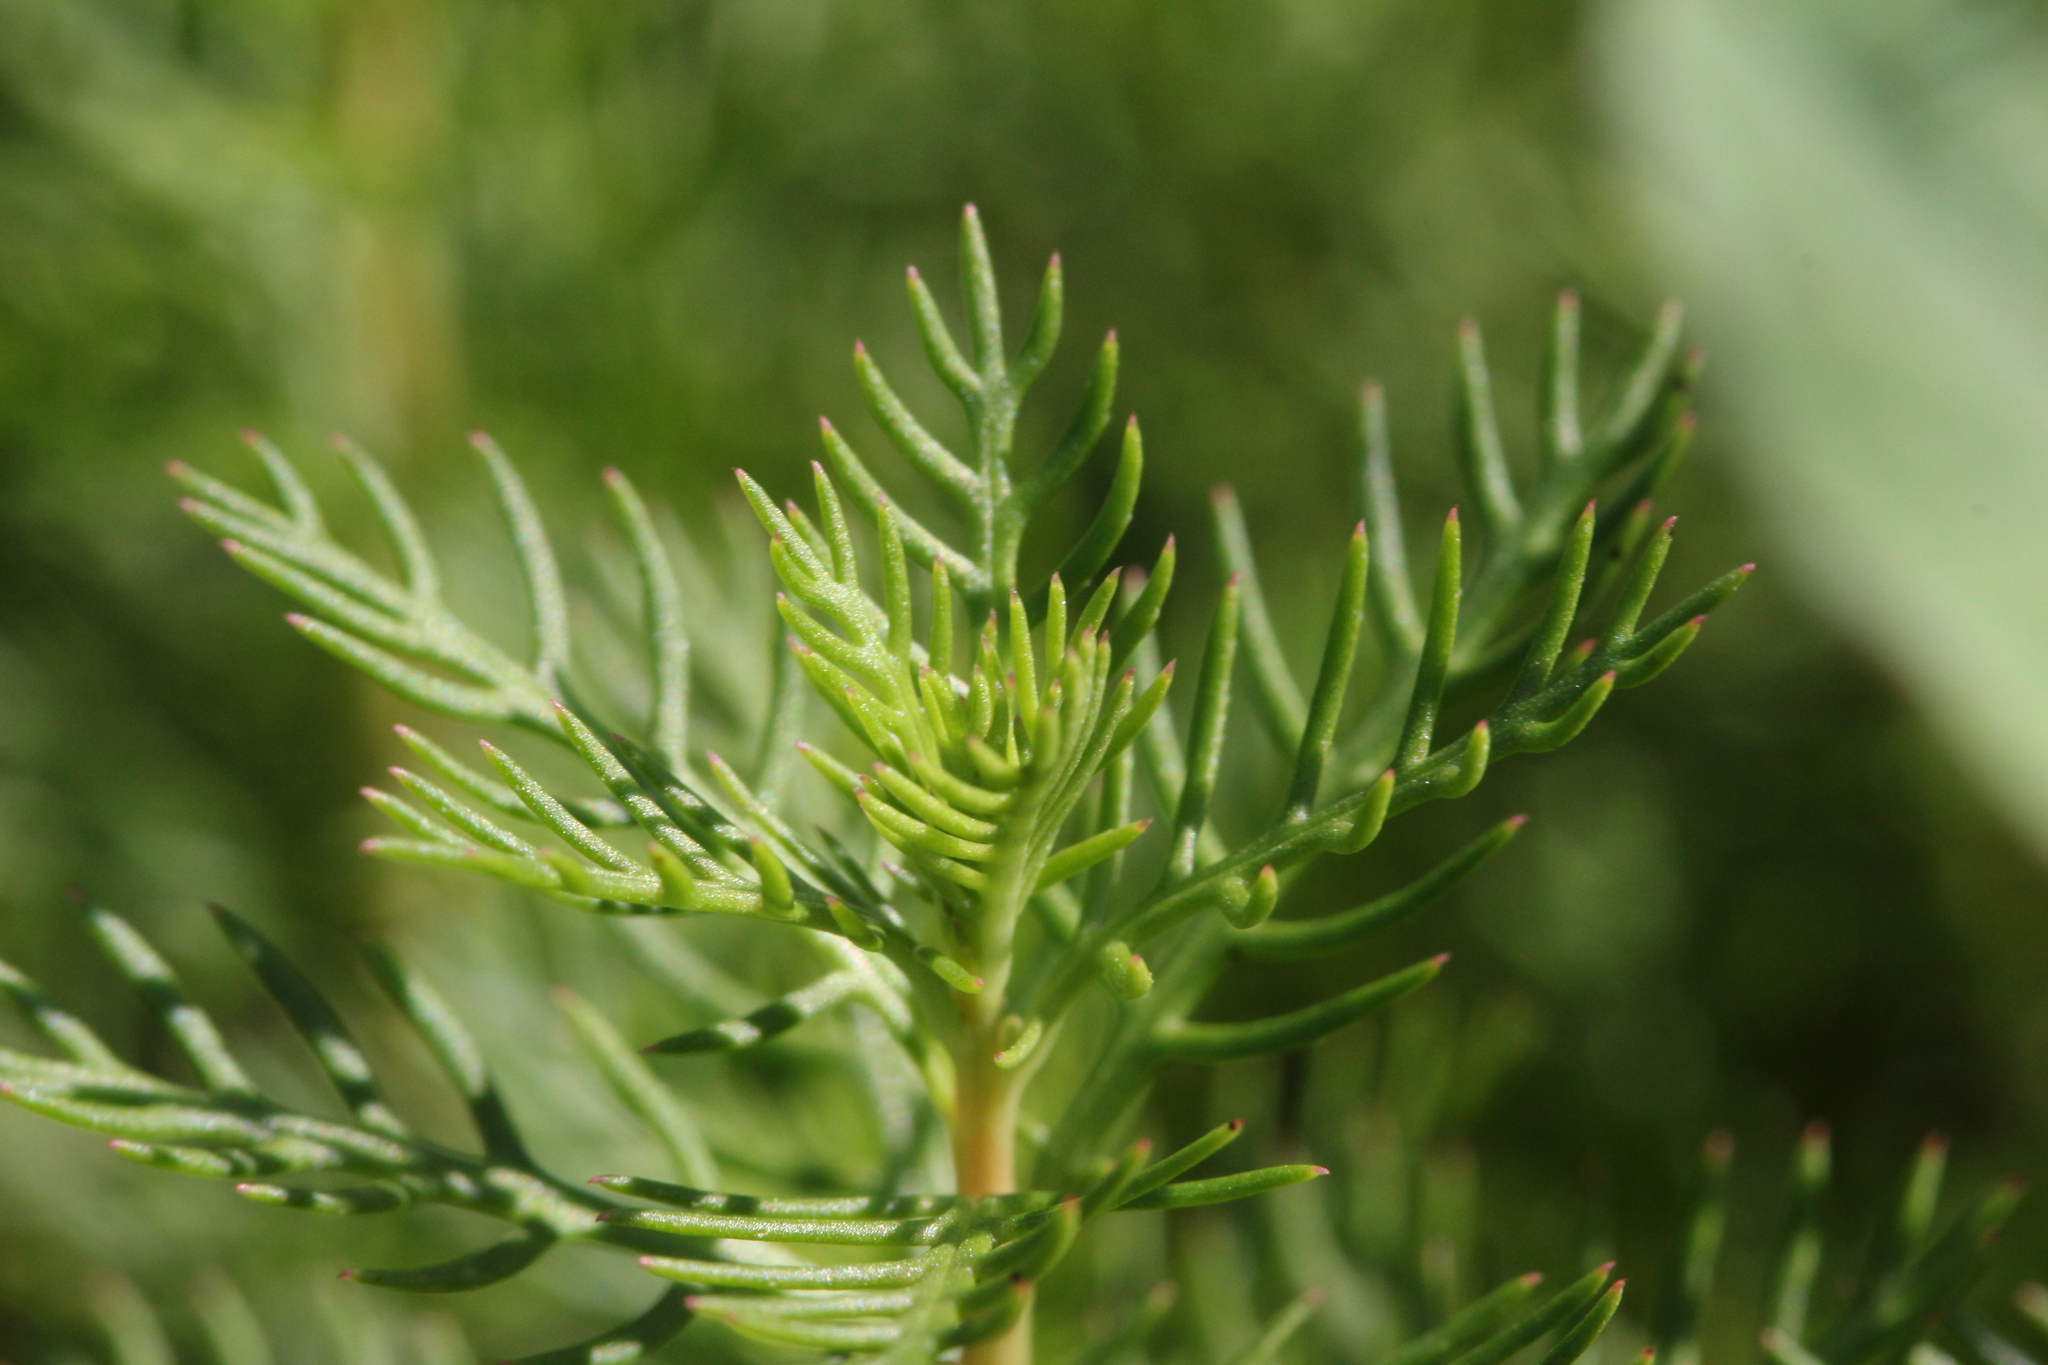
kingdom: Plantae
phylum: Tracheophyta
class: Magnoliopsida
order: Saxifragales
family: Haloragaceae
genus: Proserpinaca
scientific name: Proserpinaca pectinata
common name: Comb-leaved mermaidweed
